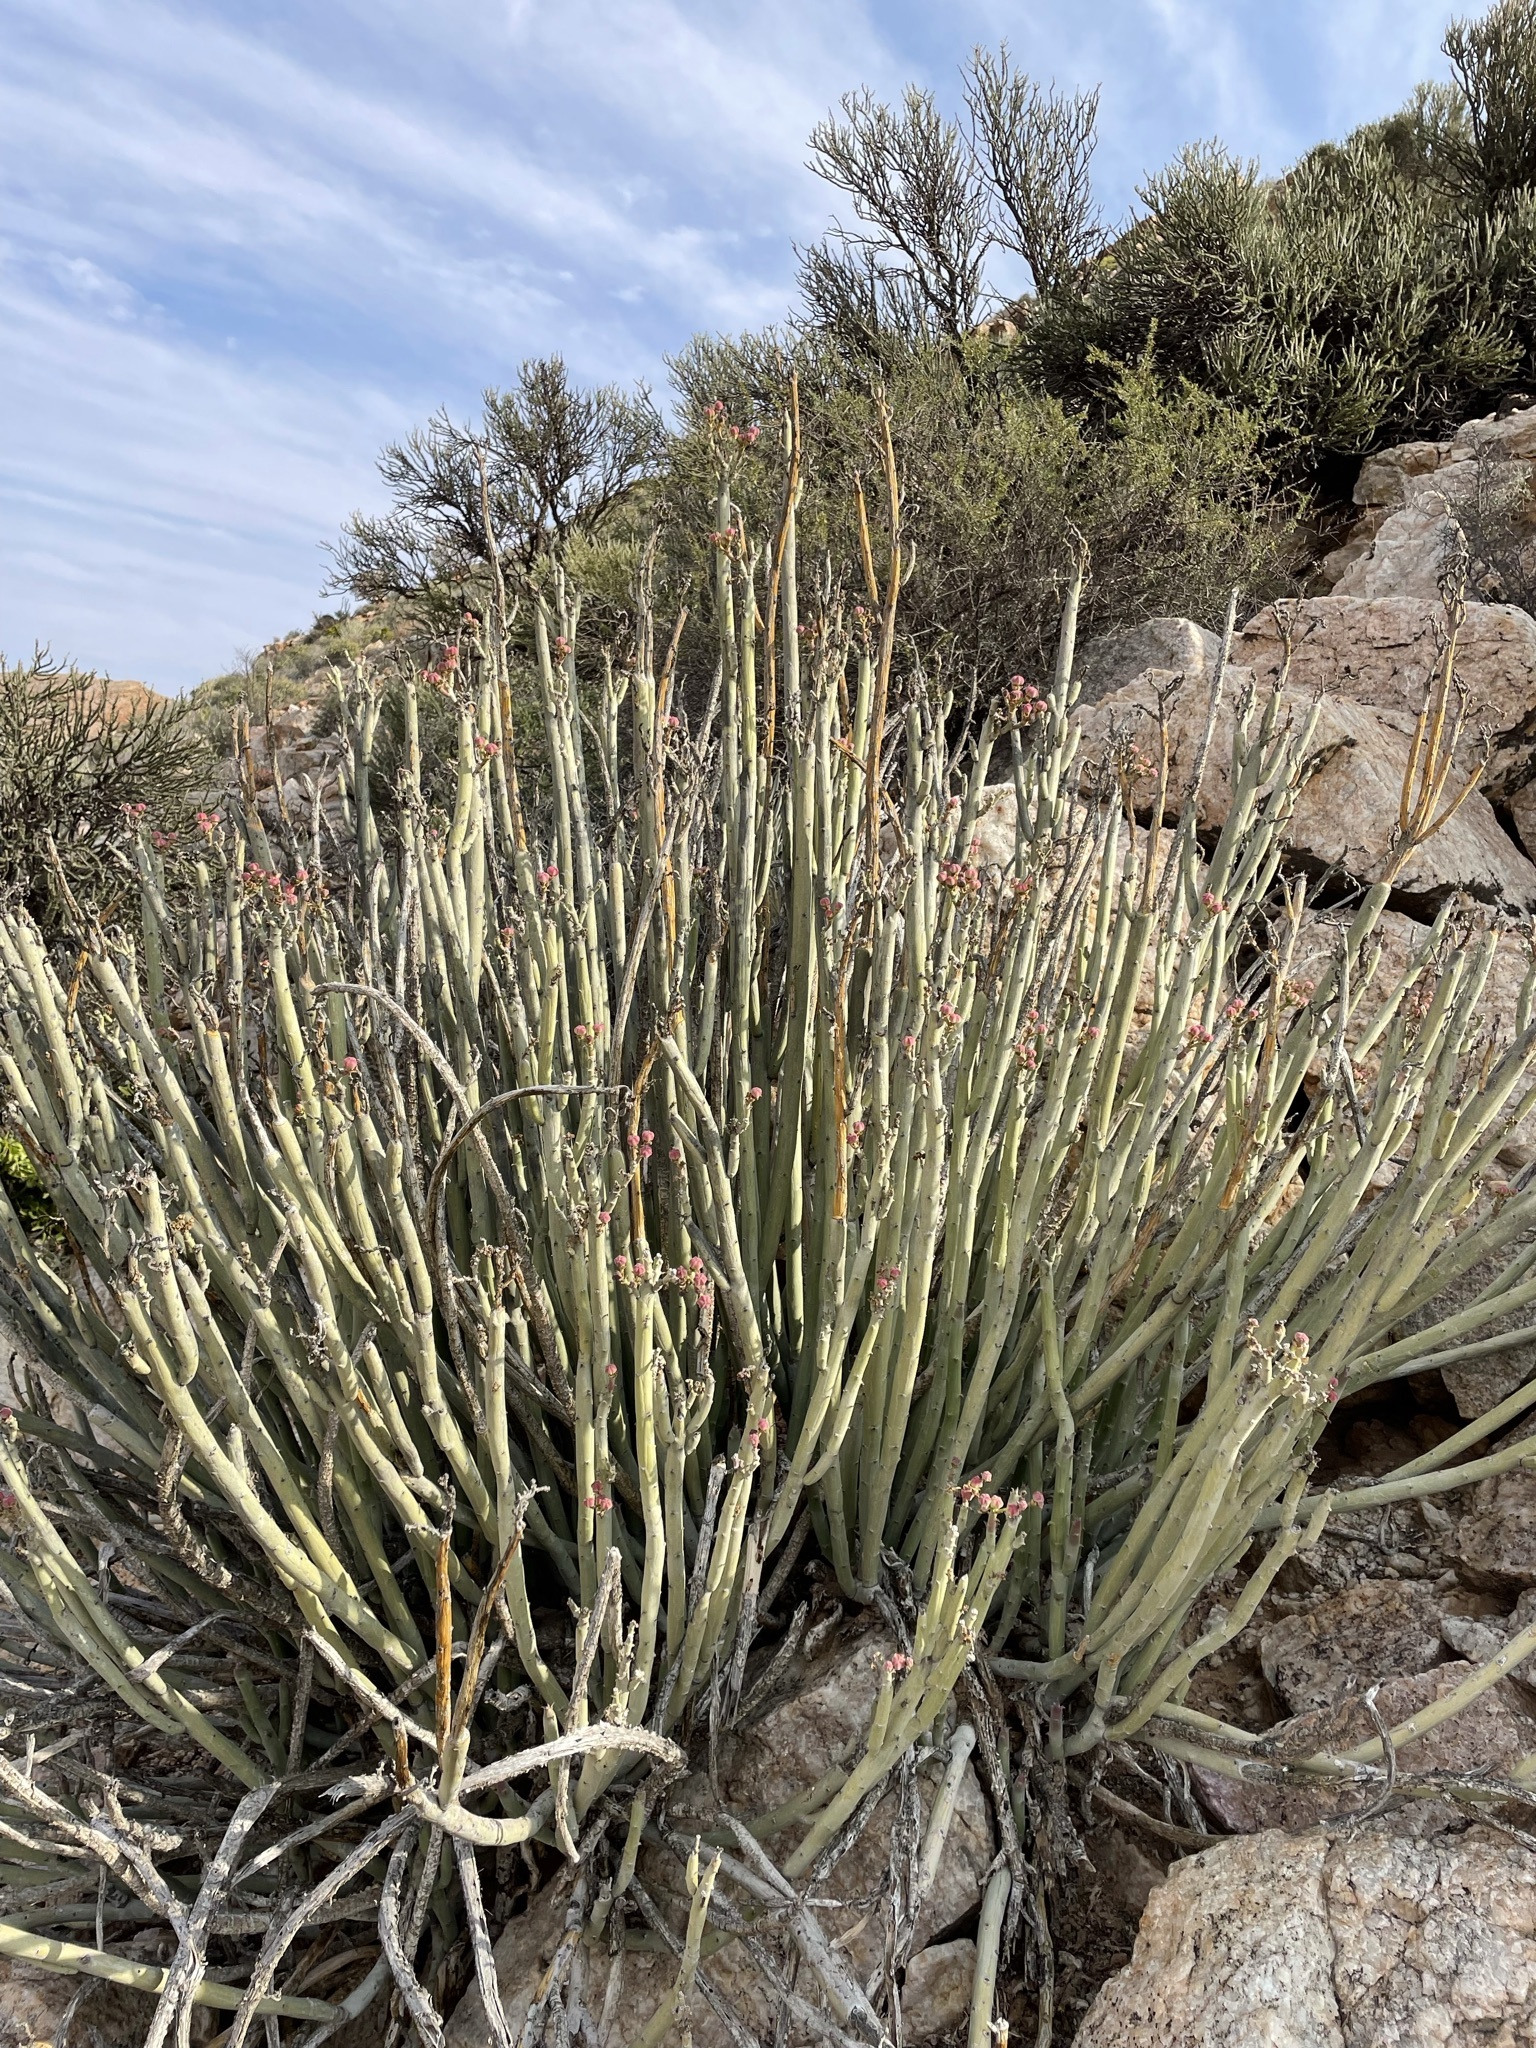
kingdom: Plantae
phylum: Tracheophyta
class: Magnoliopsida
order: Malpighiales
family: Euphorbiaceae
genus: Euphorbia
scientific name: Euphorbia dregeana
